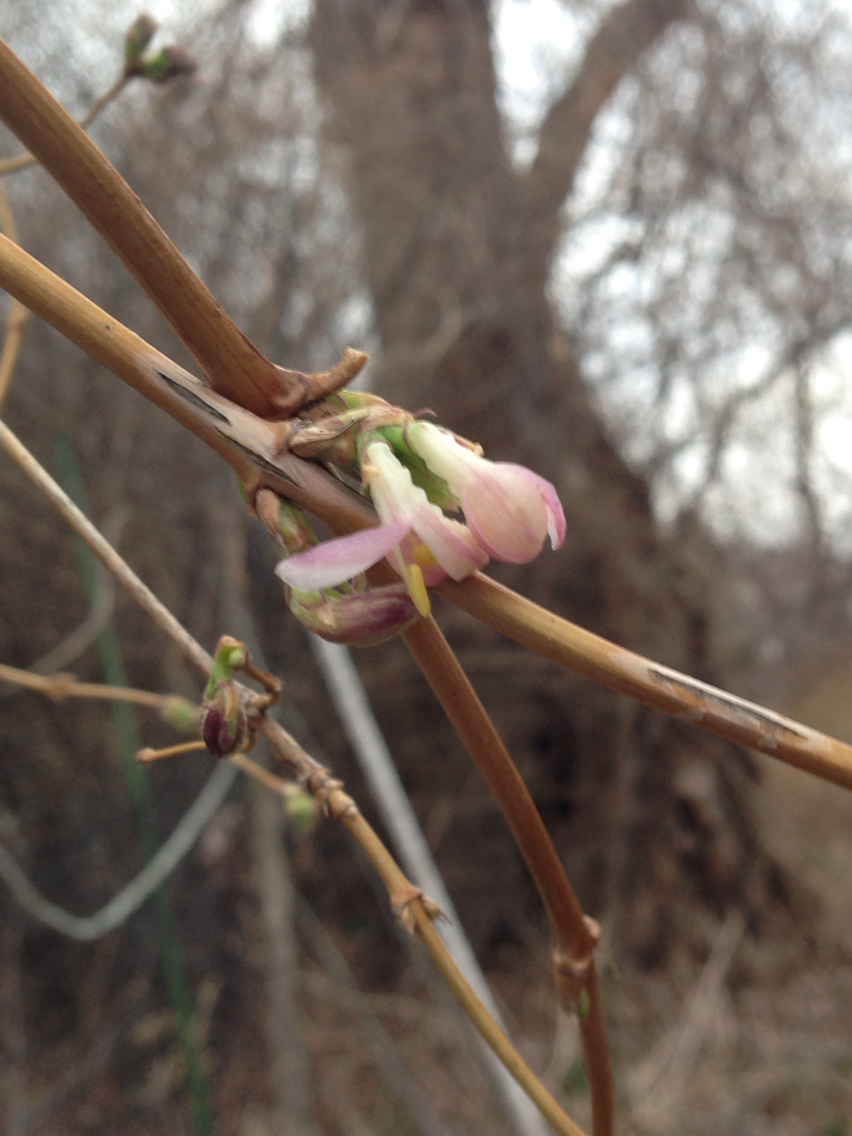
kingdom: Plantae
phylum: Tracheophyta
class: Magnoliopsida
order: Dipsacales
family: Caprifoliaceae
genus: Lonicera
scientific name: Lonicera fragrantissima
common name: Fragrant honeysuckle
